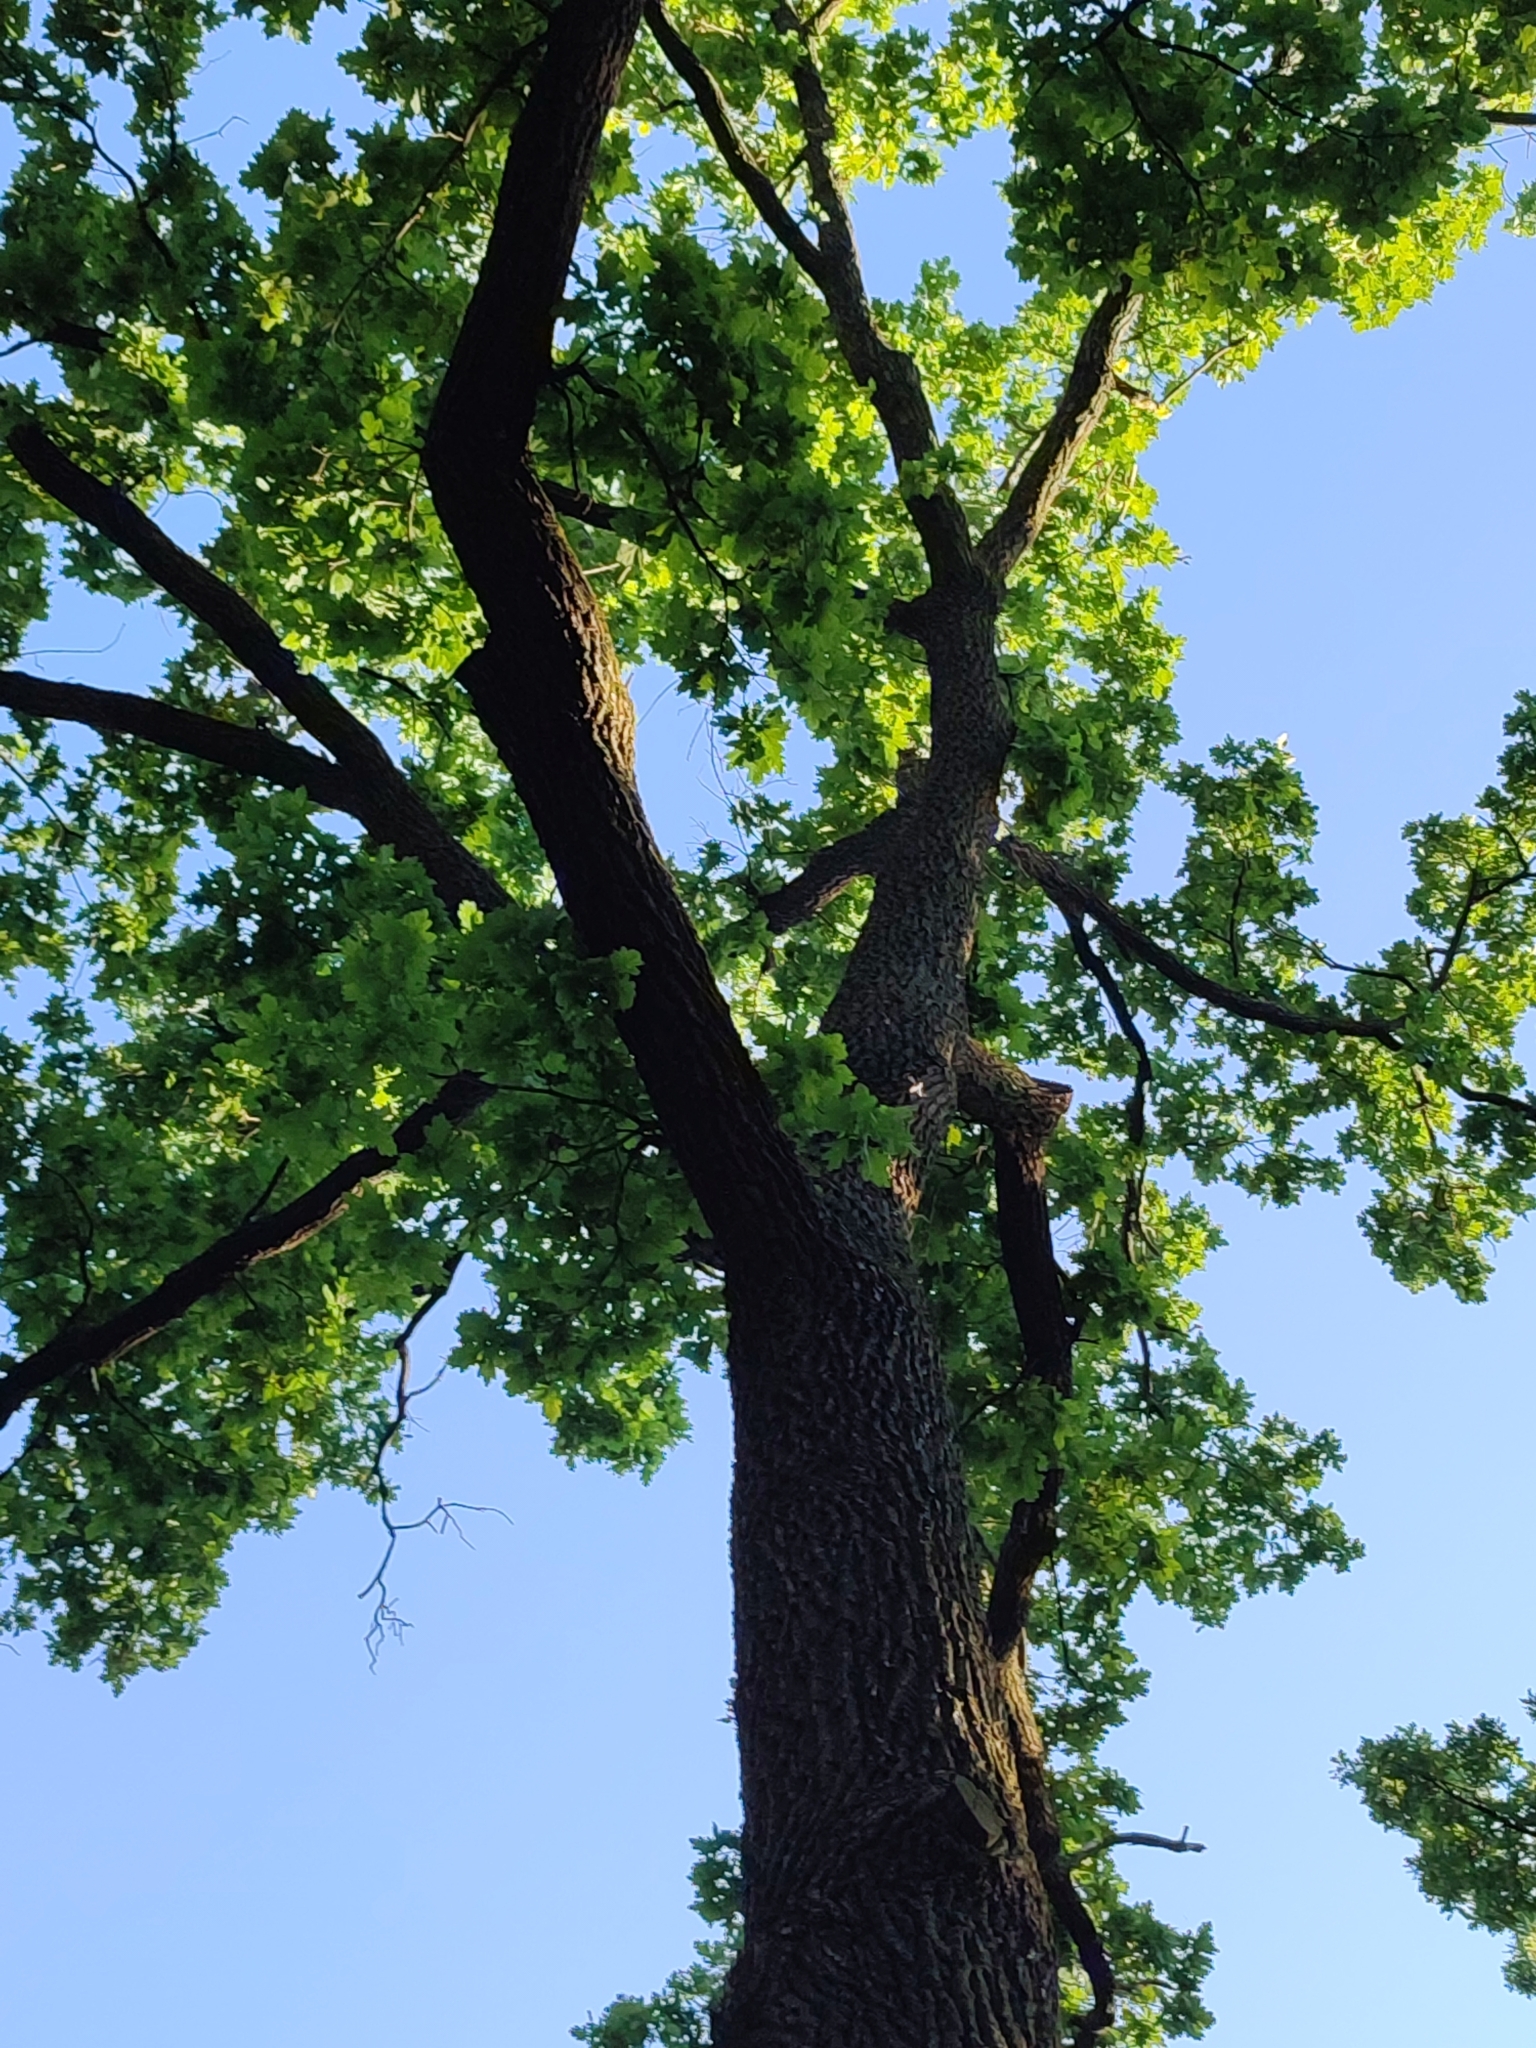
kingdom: Plantae
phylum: Tracheophyta
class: Magnoliopsida
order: Fagales
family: Fagaceae
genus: Quercus
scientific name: Quercus robur
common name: Pedunculate oak
